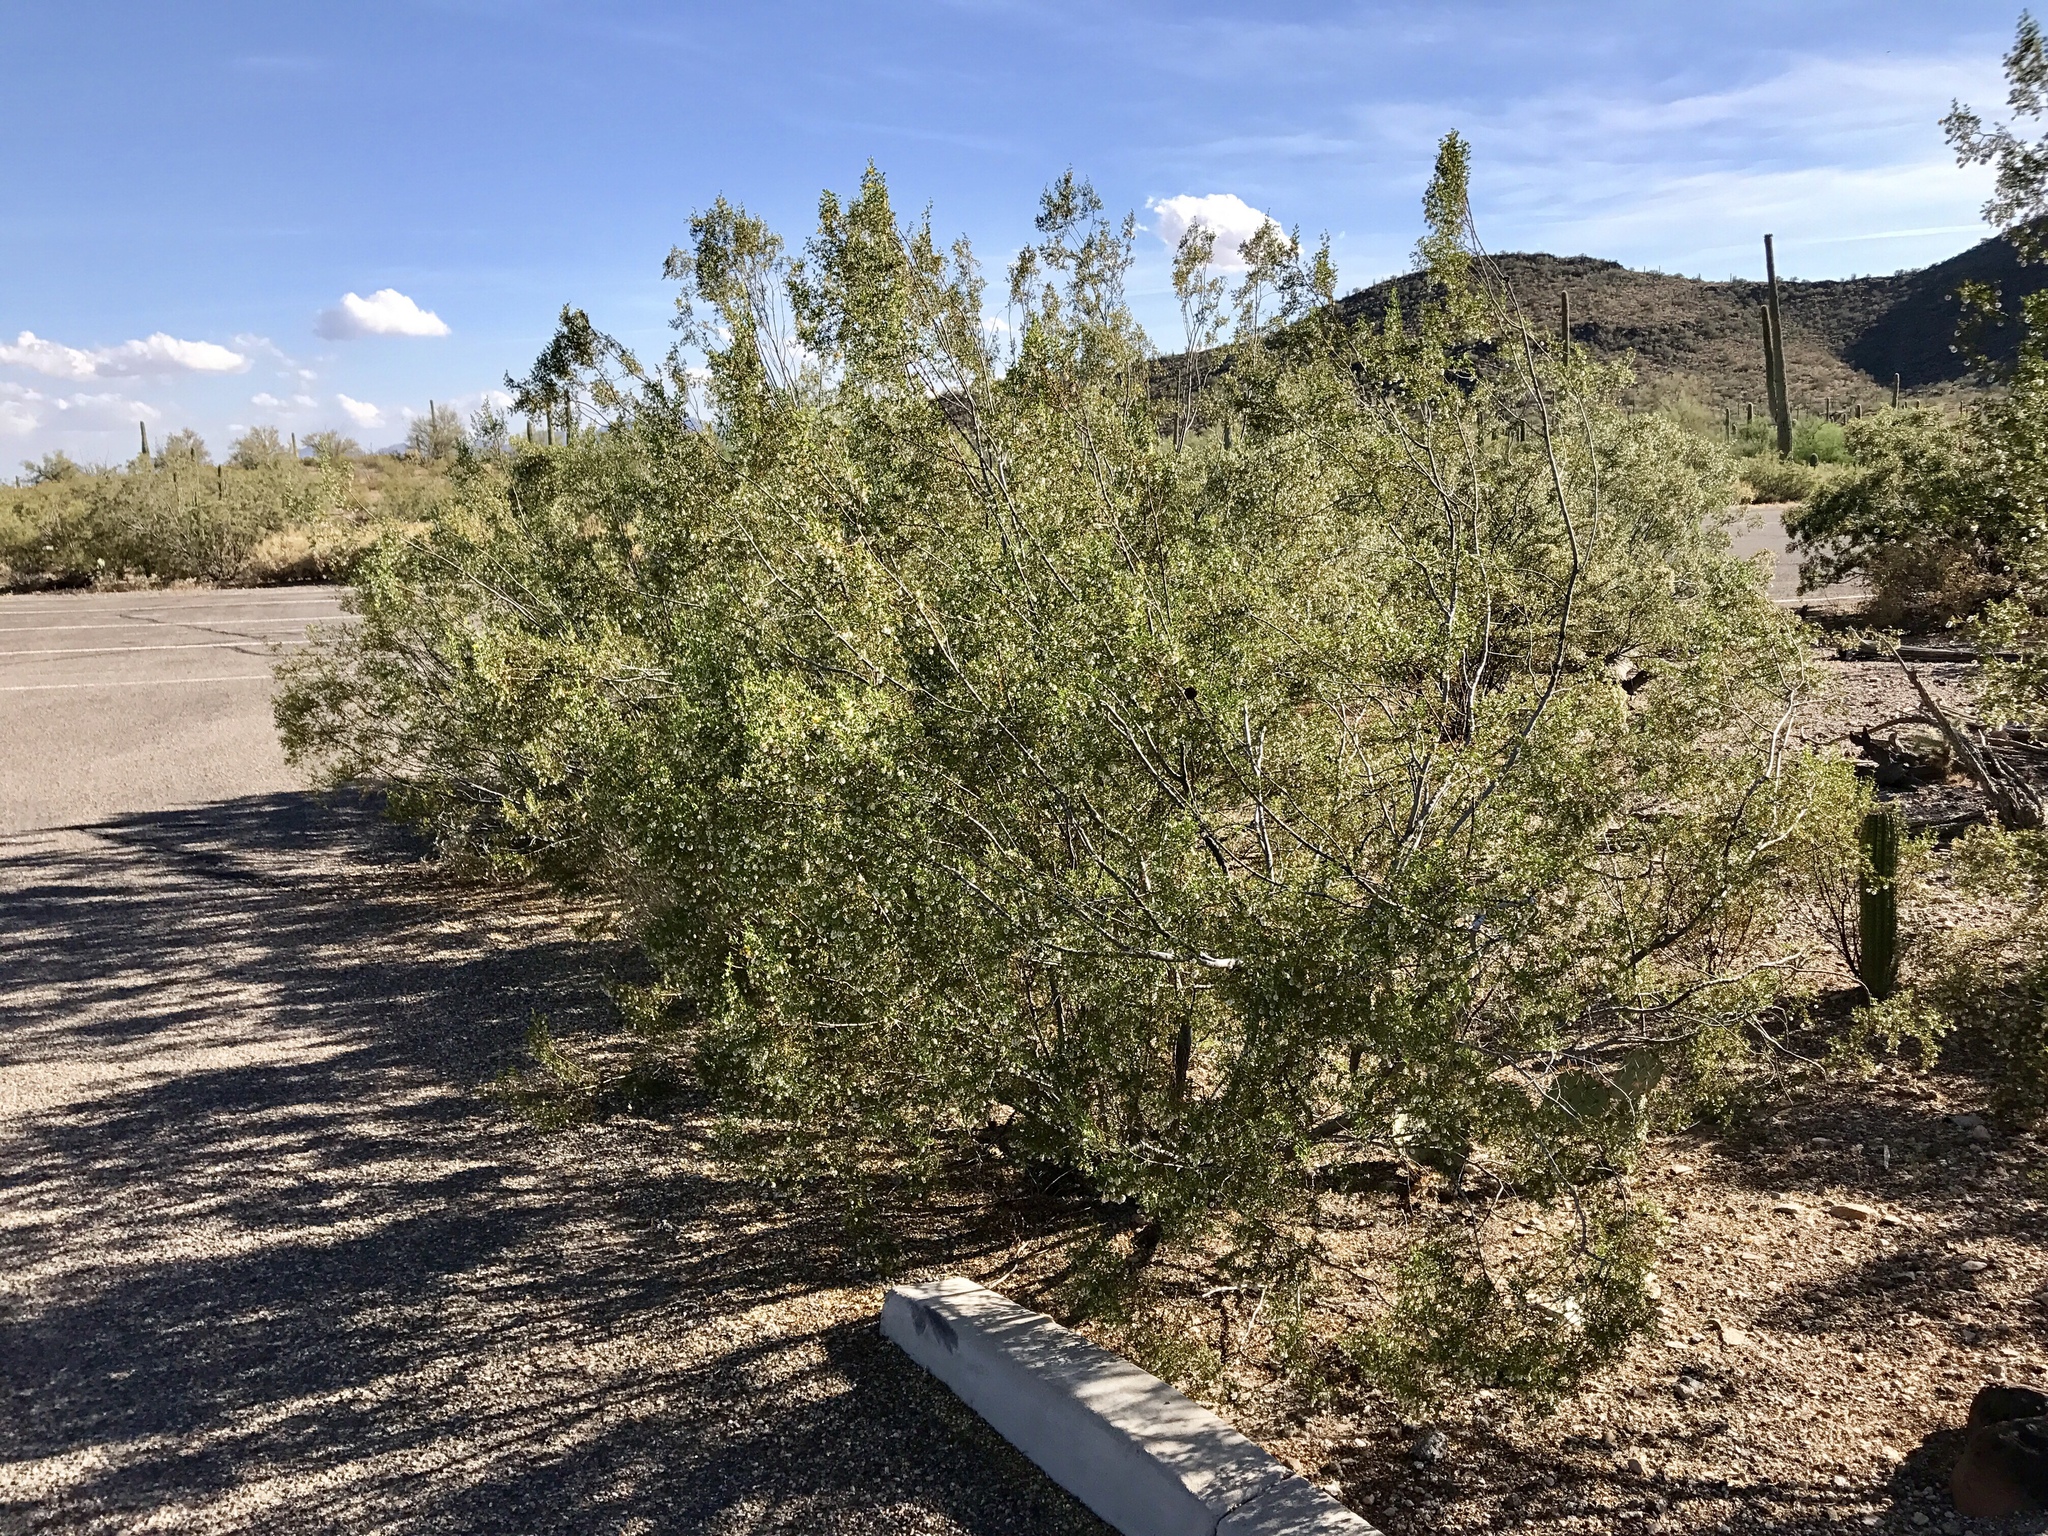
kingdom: Plantae
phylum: Tracheophyta
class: Magnoliopsida
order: Zygophyllales
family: Zygophyllaceae
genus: Larrea
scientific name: Larrea tridentata
